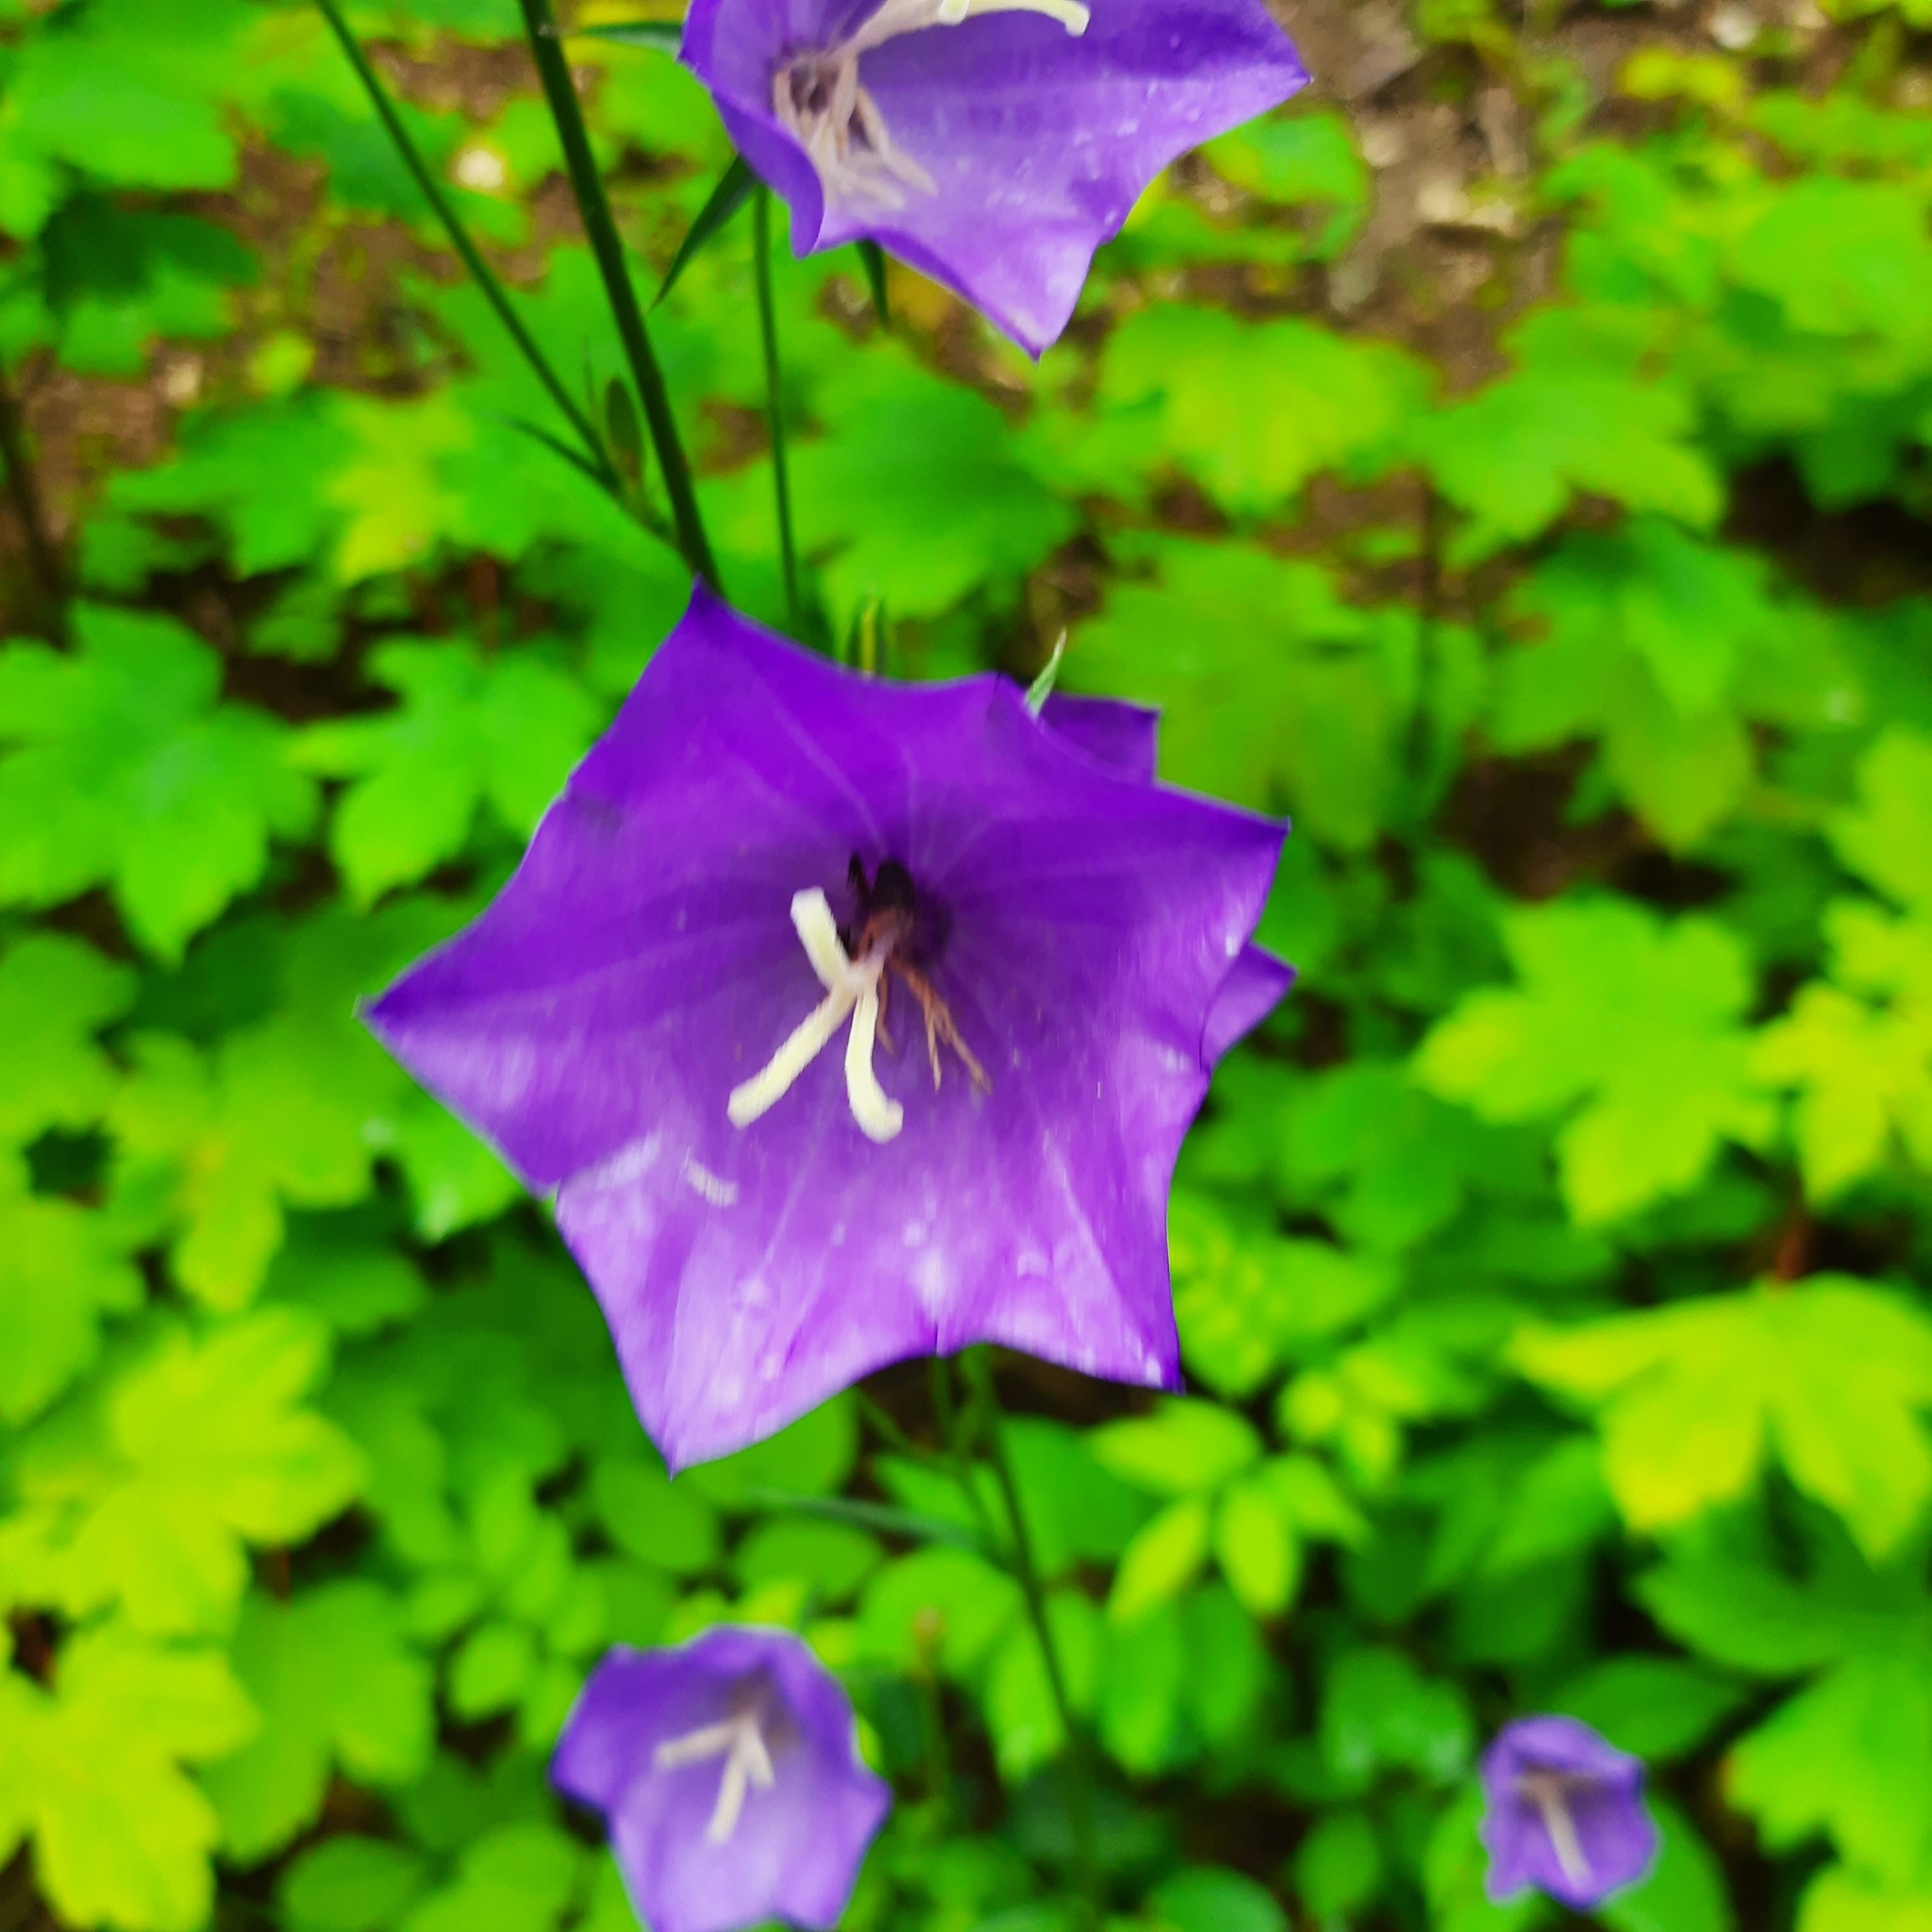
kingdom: Plantae
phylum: Tracheophyta
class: Magnoliopsida
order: Asterales
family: Campanulaceae
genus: Campanula
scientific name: Campanula persicifolia
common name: Peach-leaved bellflower
